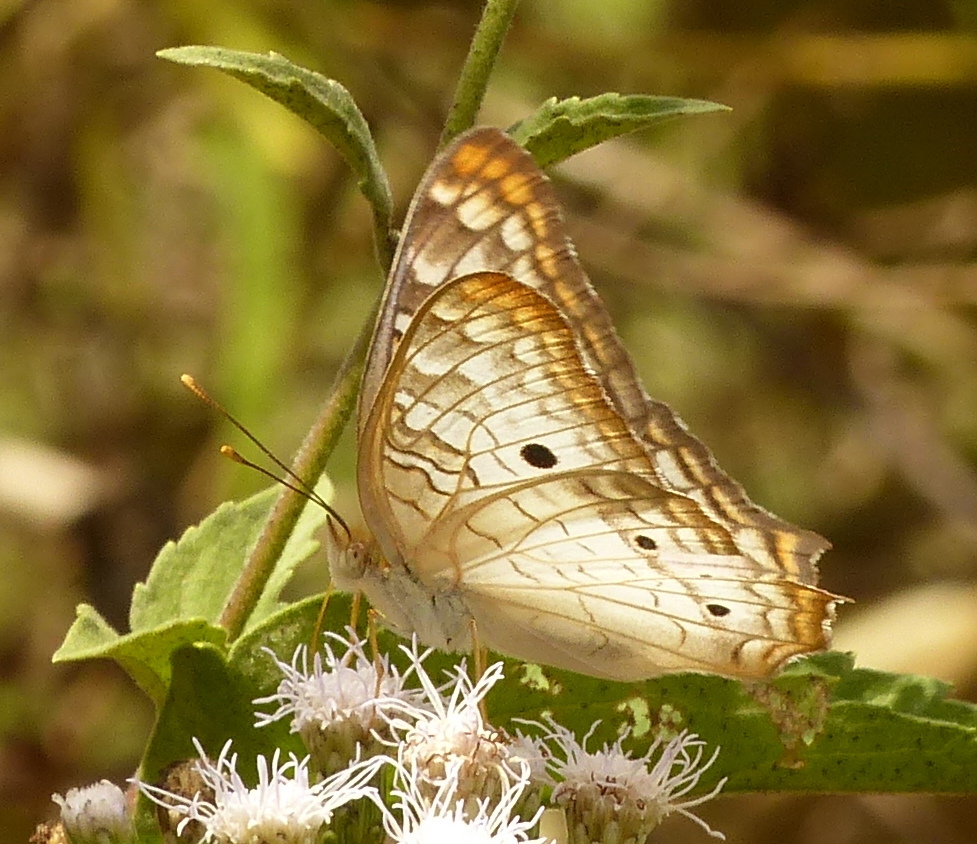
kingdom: Animalia
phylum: Arthropoda
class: Insecta
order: Lepidoptera
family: Nymphalidae
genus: Anartia
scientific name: Anartia jatrophae
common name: White peacock
